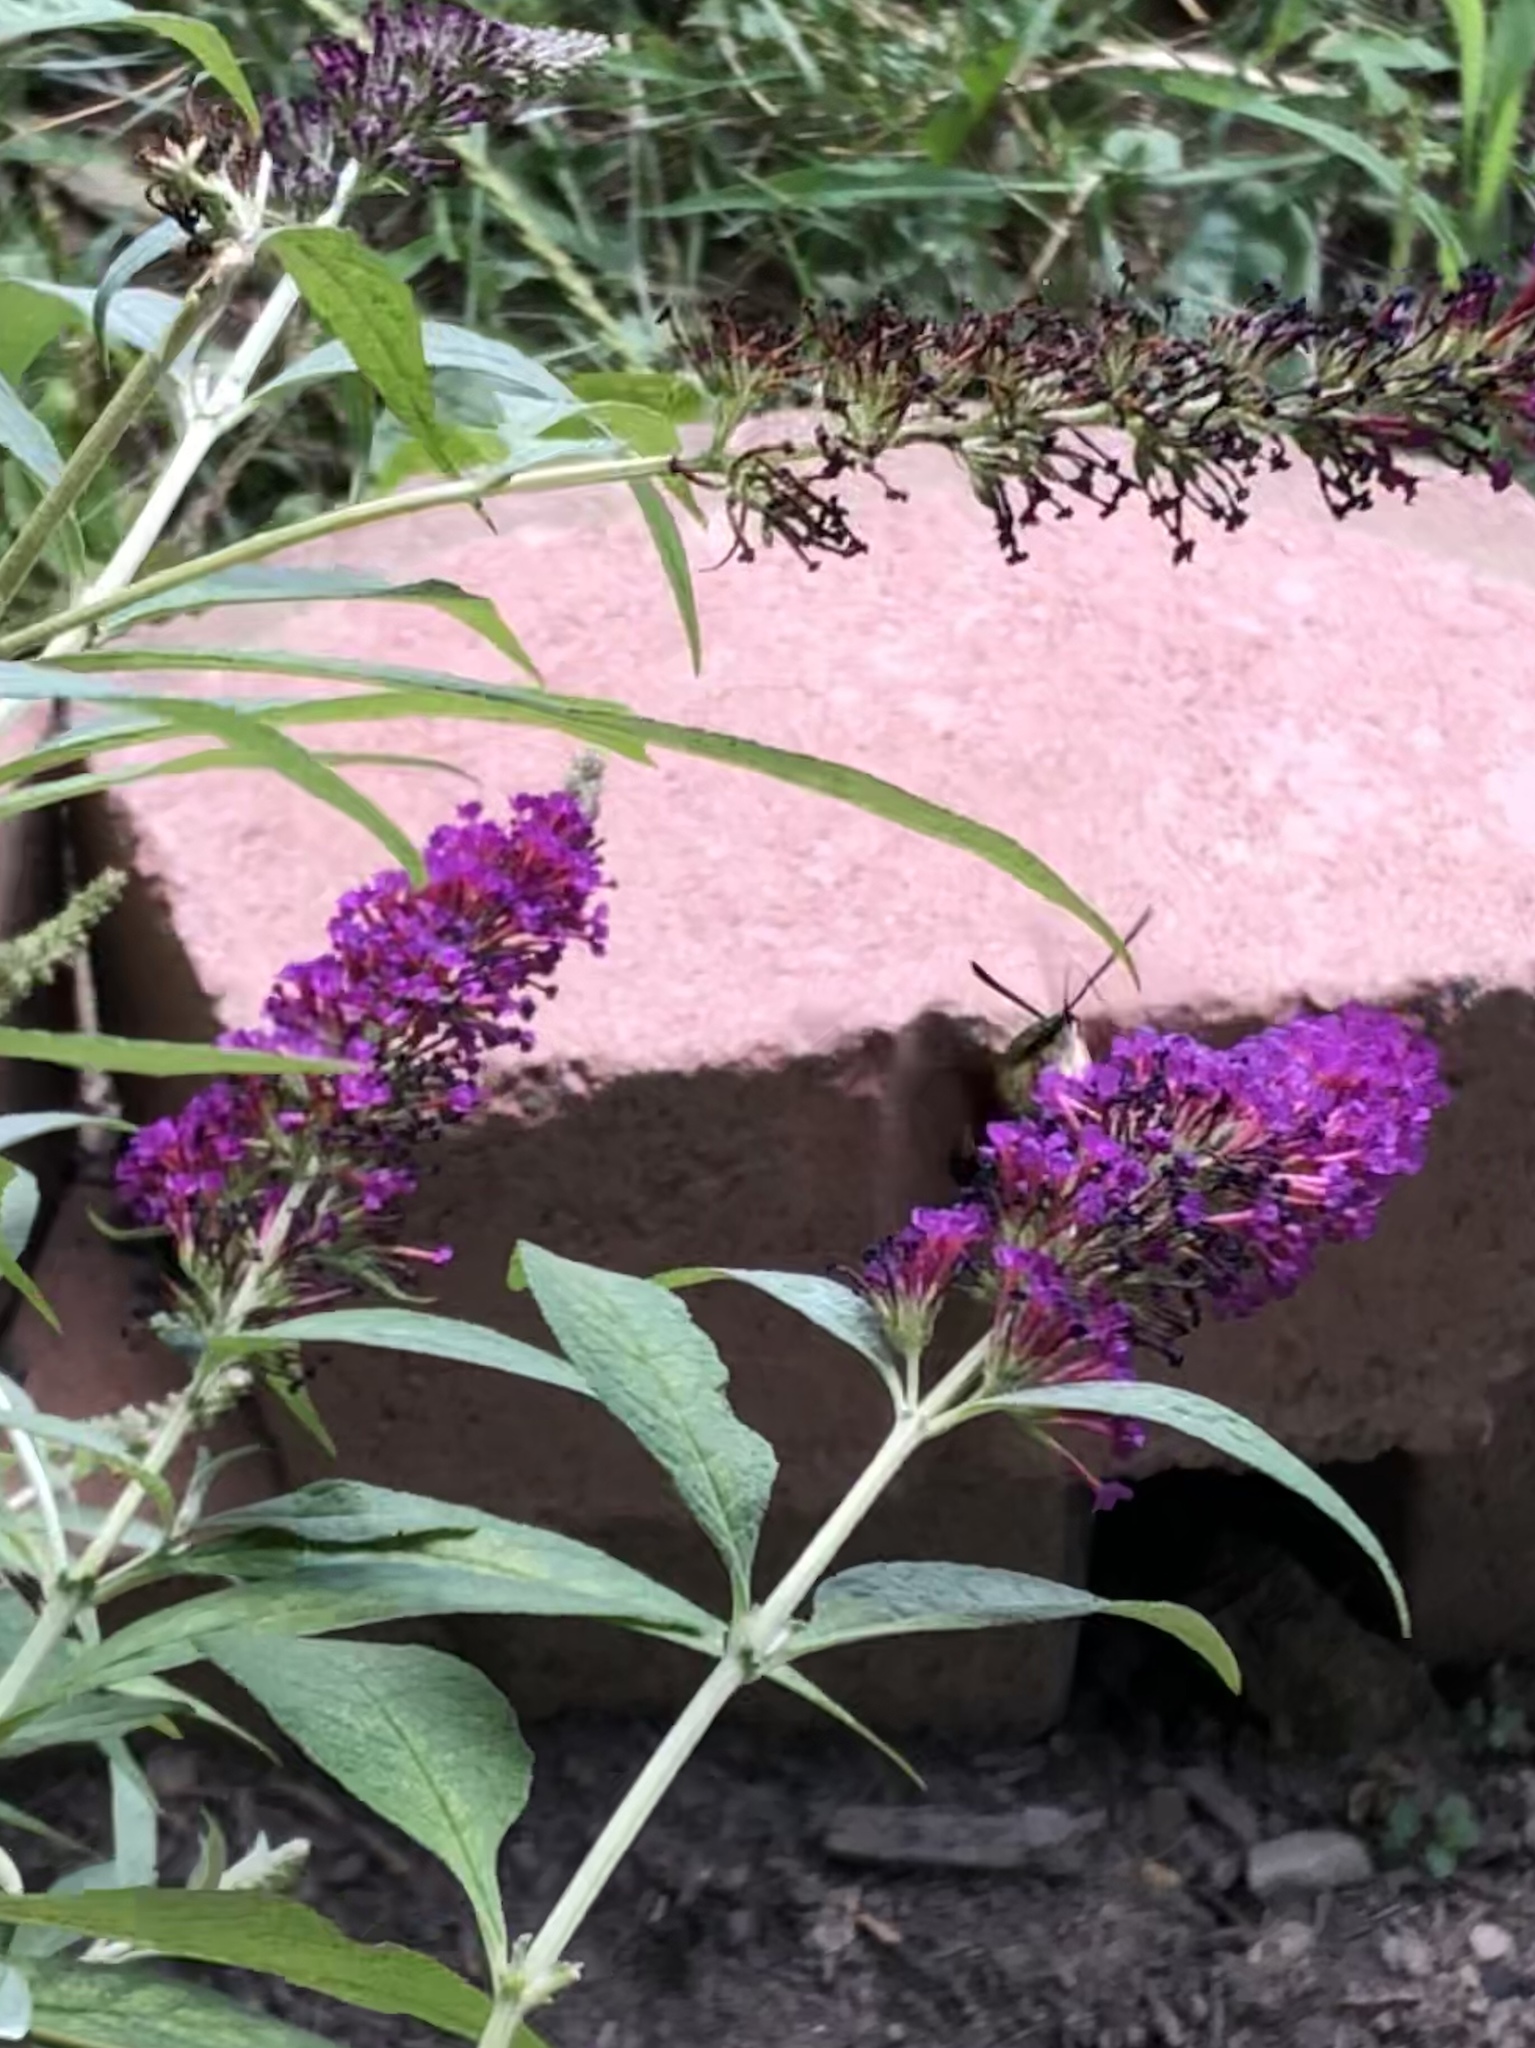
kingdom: Animalia
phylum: Arthropoda
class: Insecta
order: Lepidoptera
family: Sphingidae
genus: Hemaris
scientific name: Hemaris thysbe
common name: Common clear-wing
